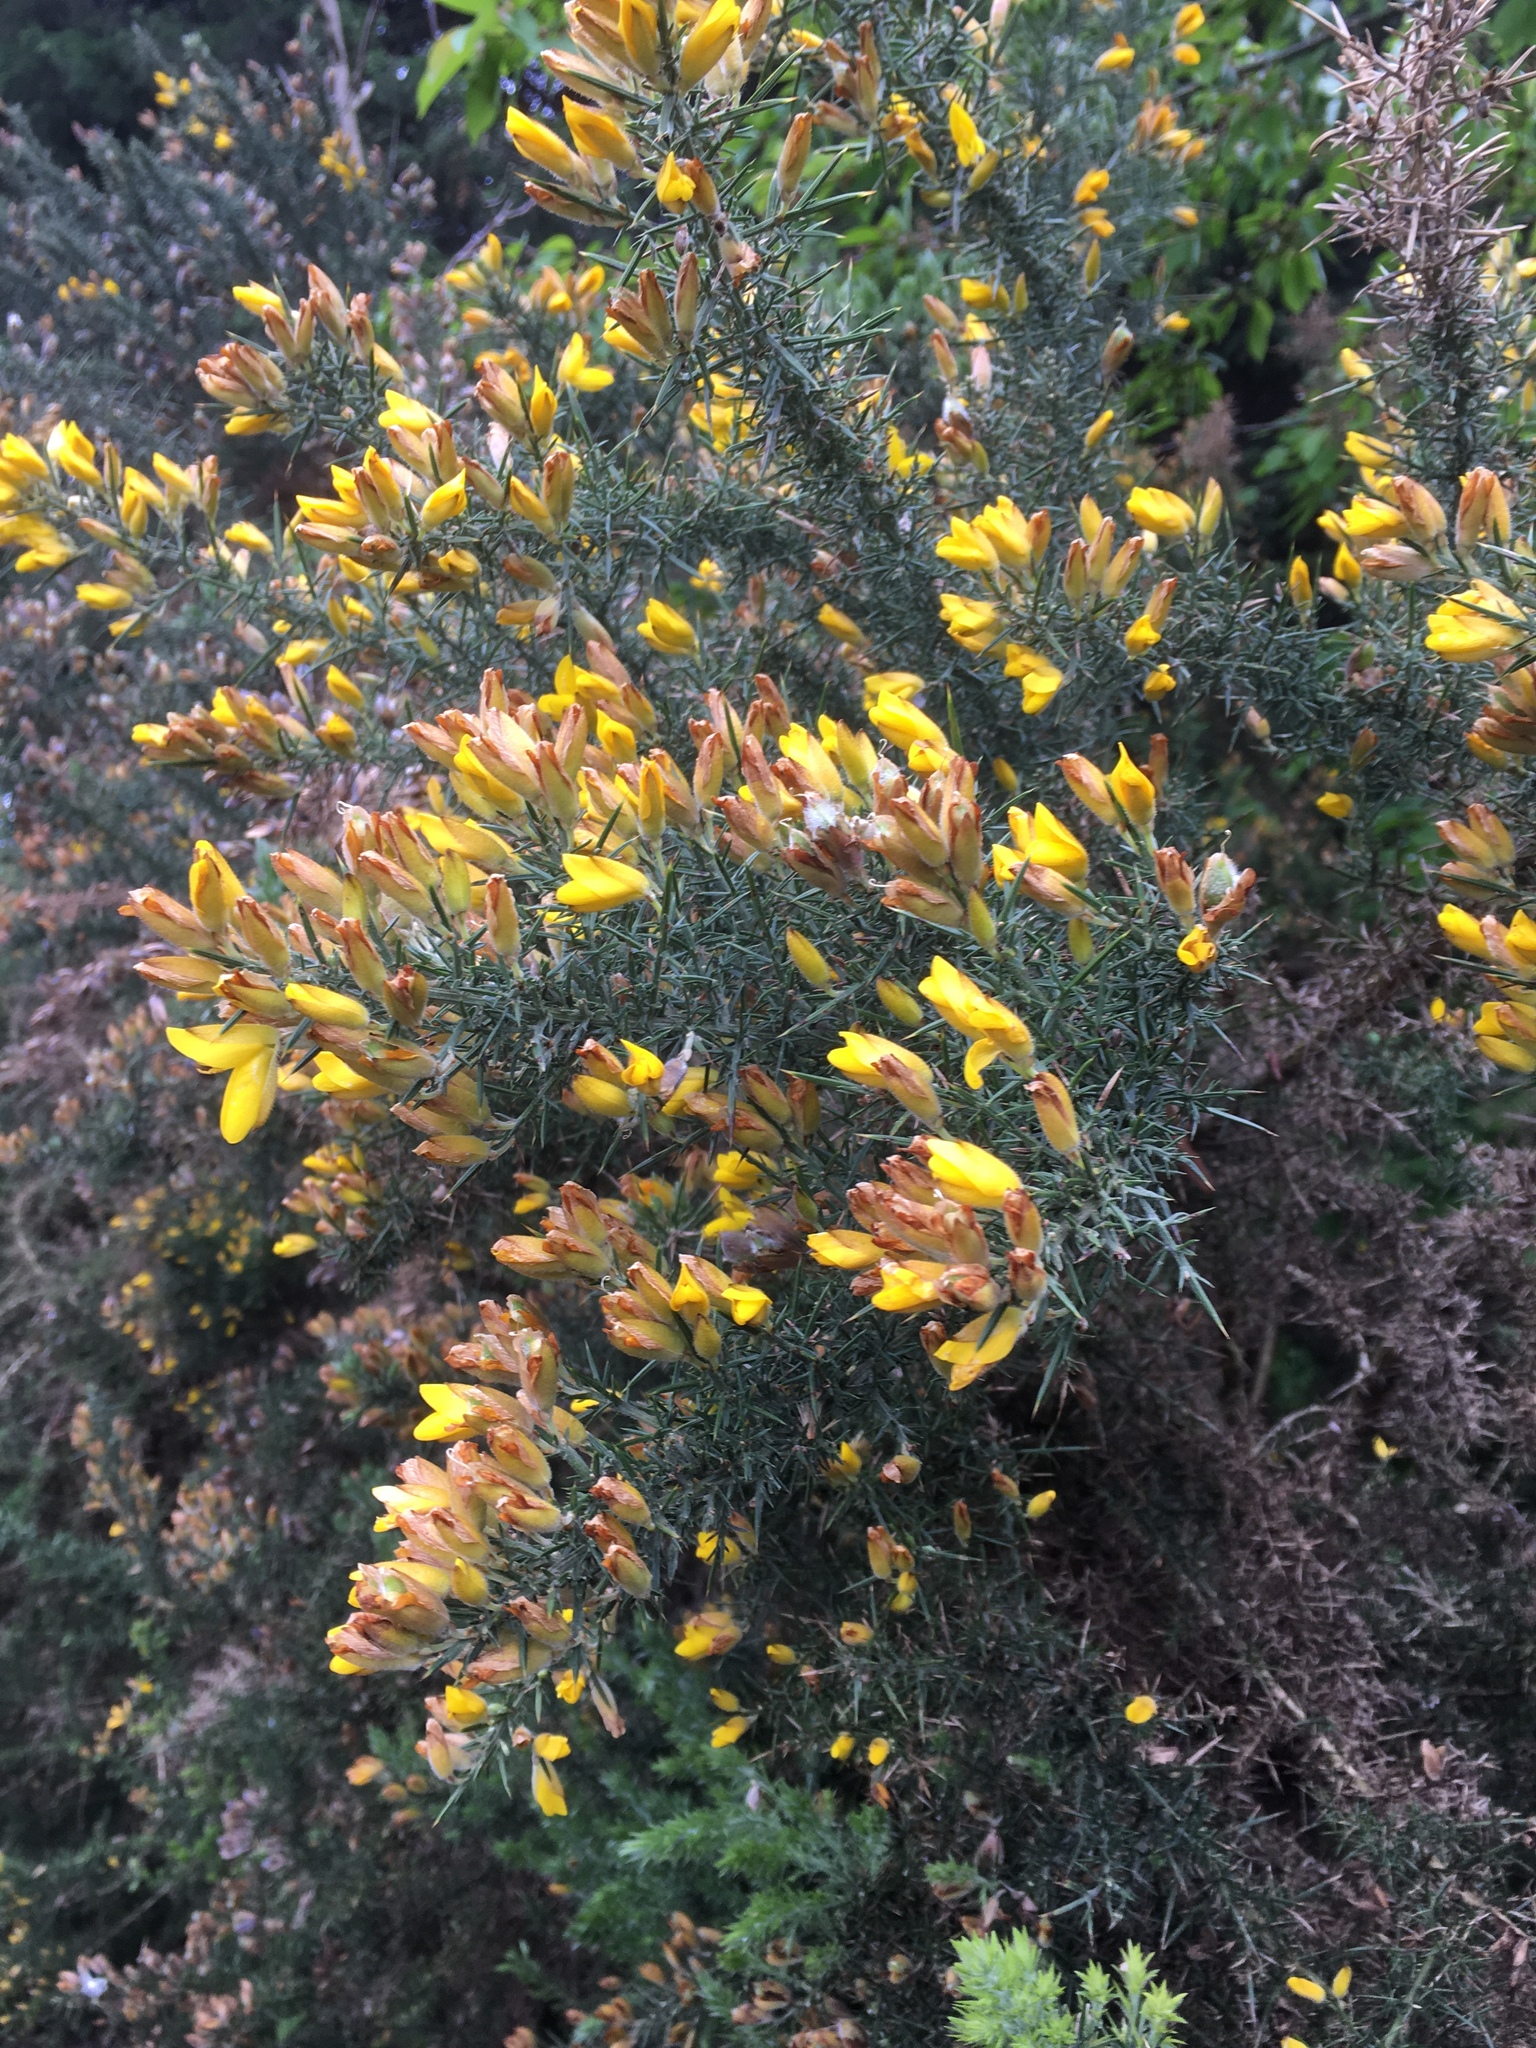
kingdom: Plantae
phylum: Tracheophyta
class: Magnoliopsida
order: Fabales
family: Fabaceae
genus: Ulex
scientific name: Ulex europaeus
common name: Common gorse
